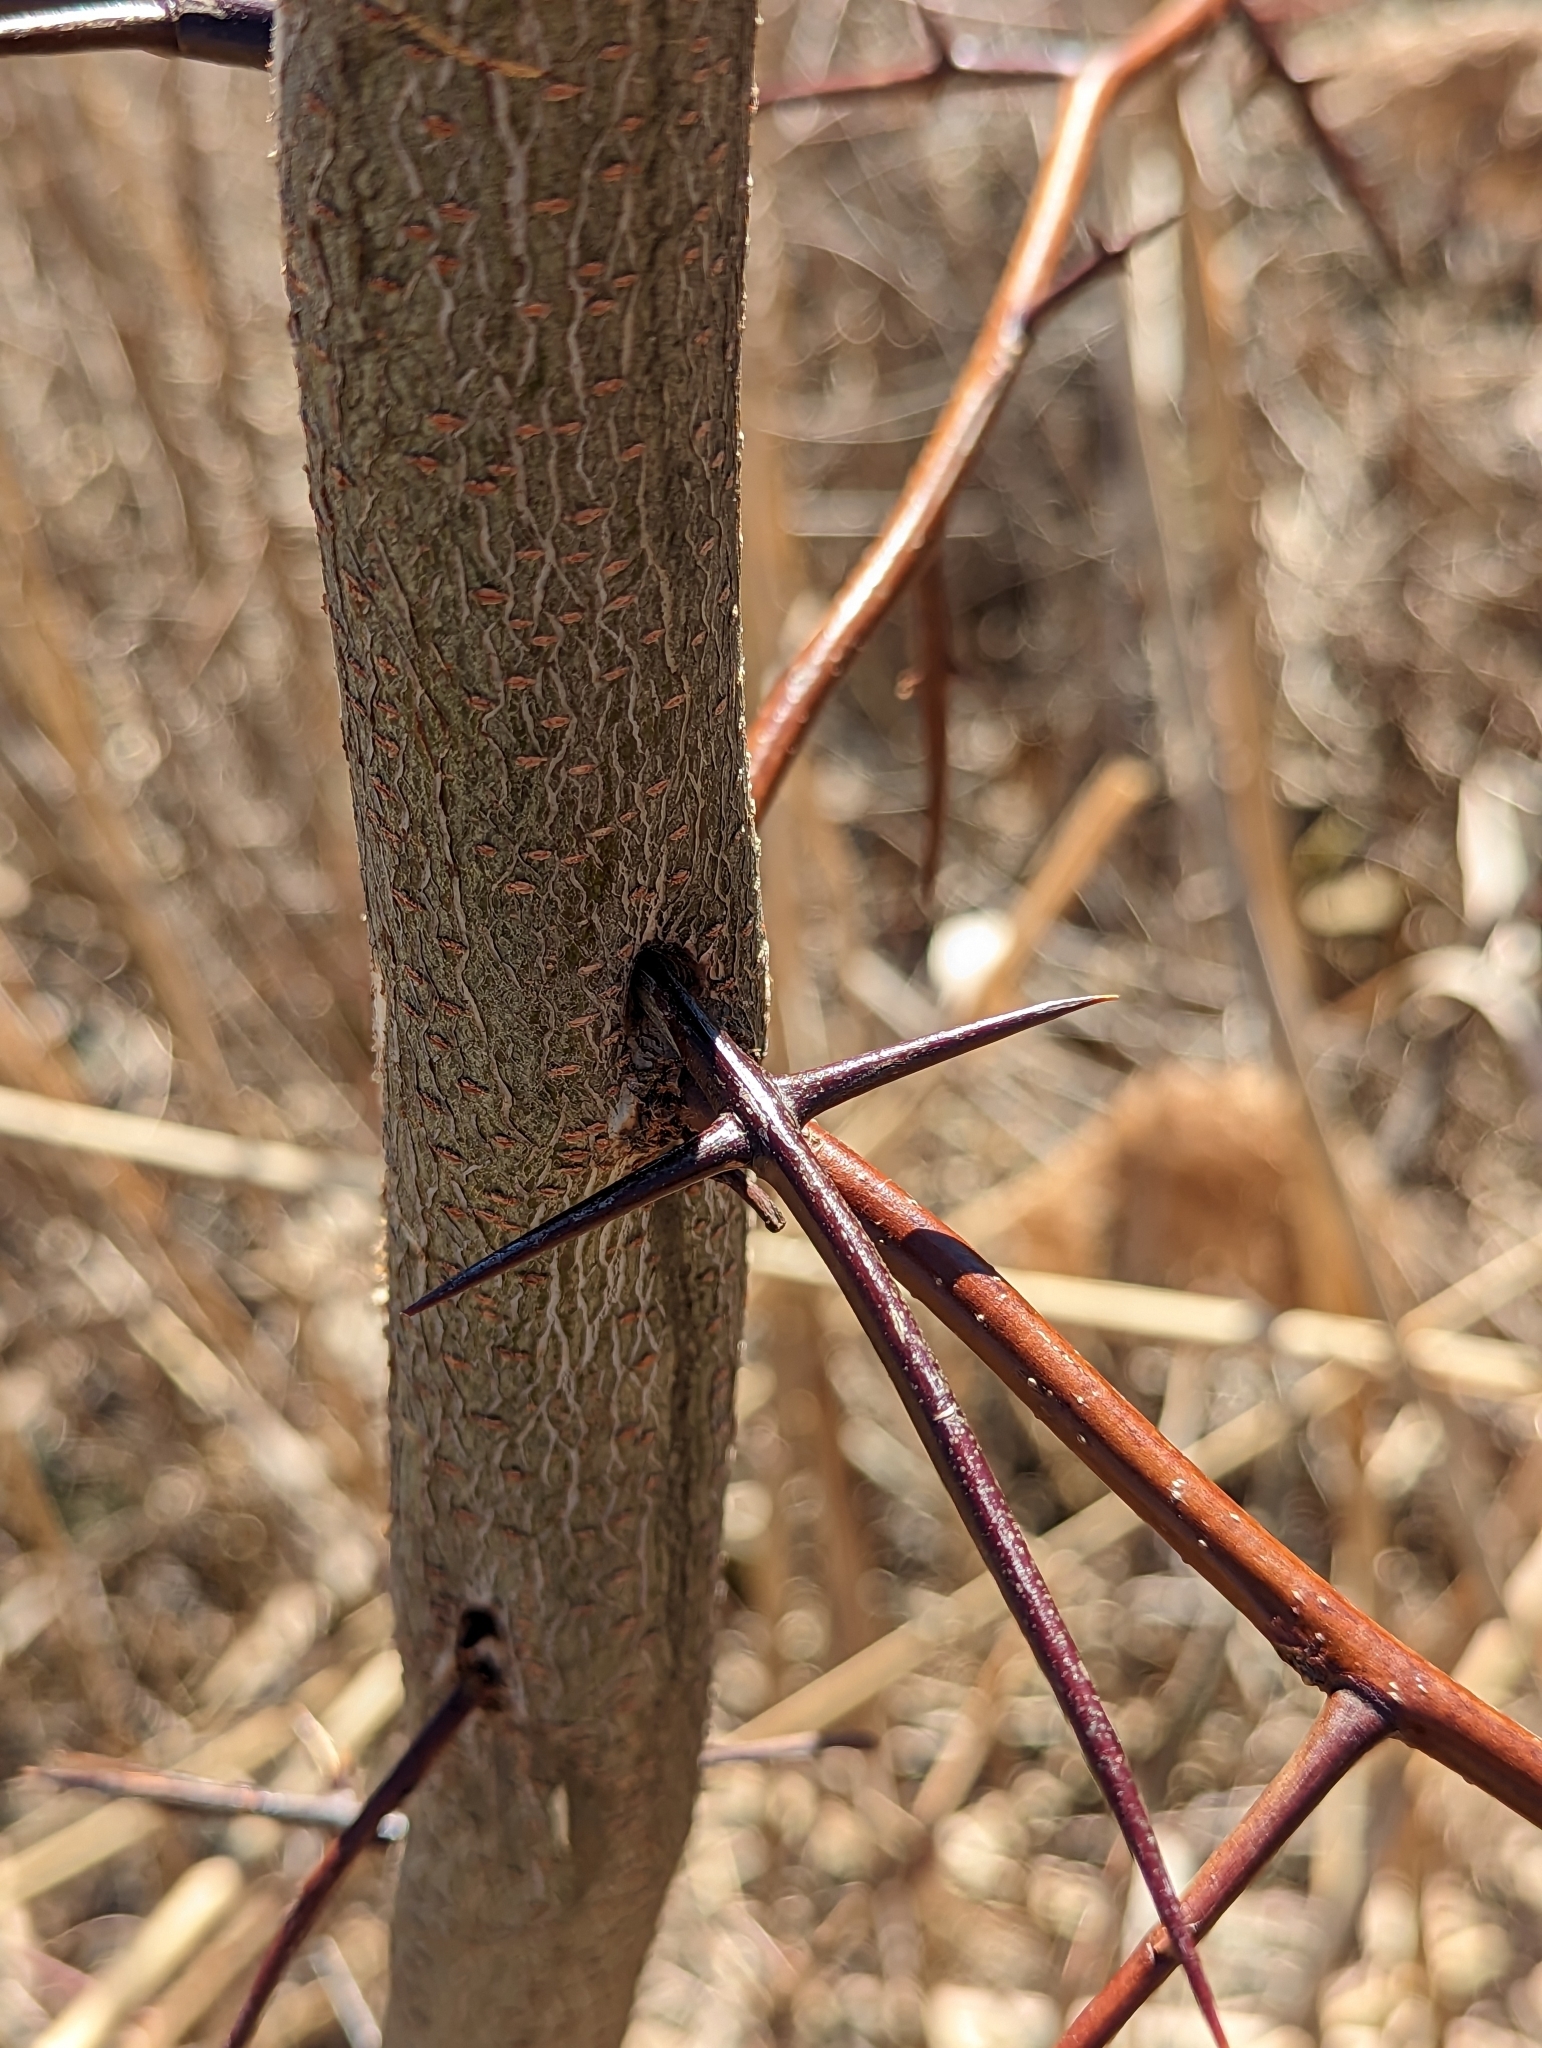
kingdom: Plantae
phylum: Tracheophyta
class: Magnoliopsida
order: Fabales
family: Fabaceae
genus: Gleditsia
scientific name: Gleditsia triacanthos
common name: Common honeylocust
